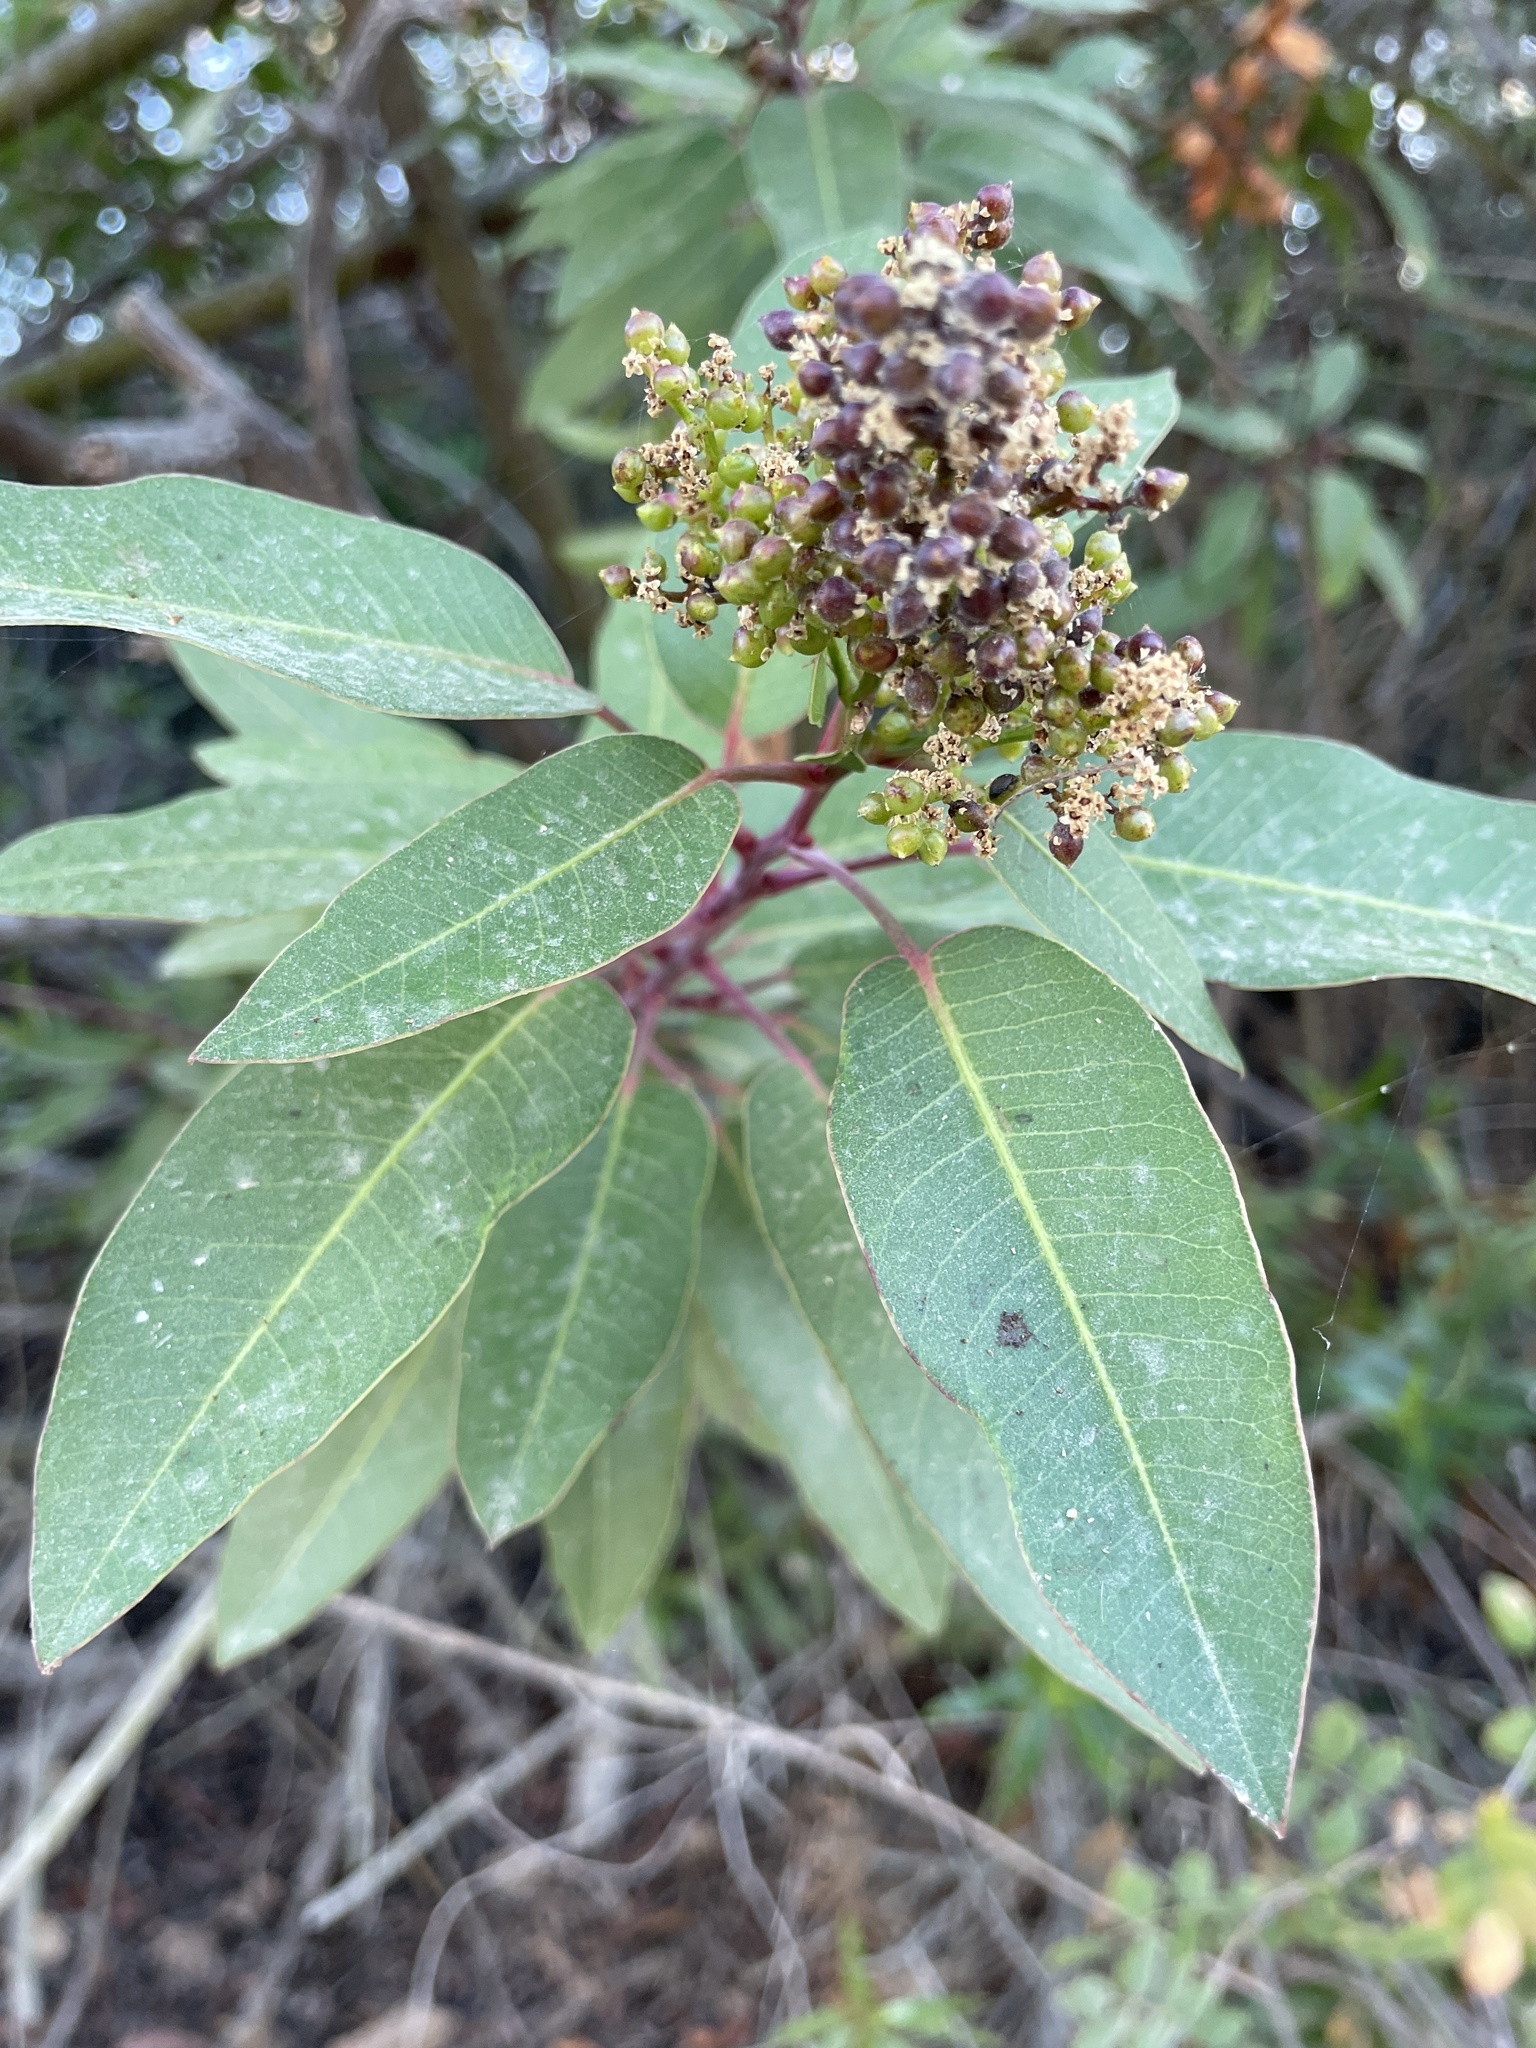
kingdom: Plantae
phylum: Tracheophyta
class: Magnoliopsida
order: Sapindales
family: Anacardiaceae
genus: Malosma
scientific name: Malosma laurina
